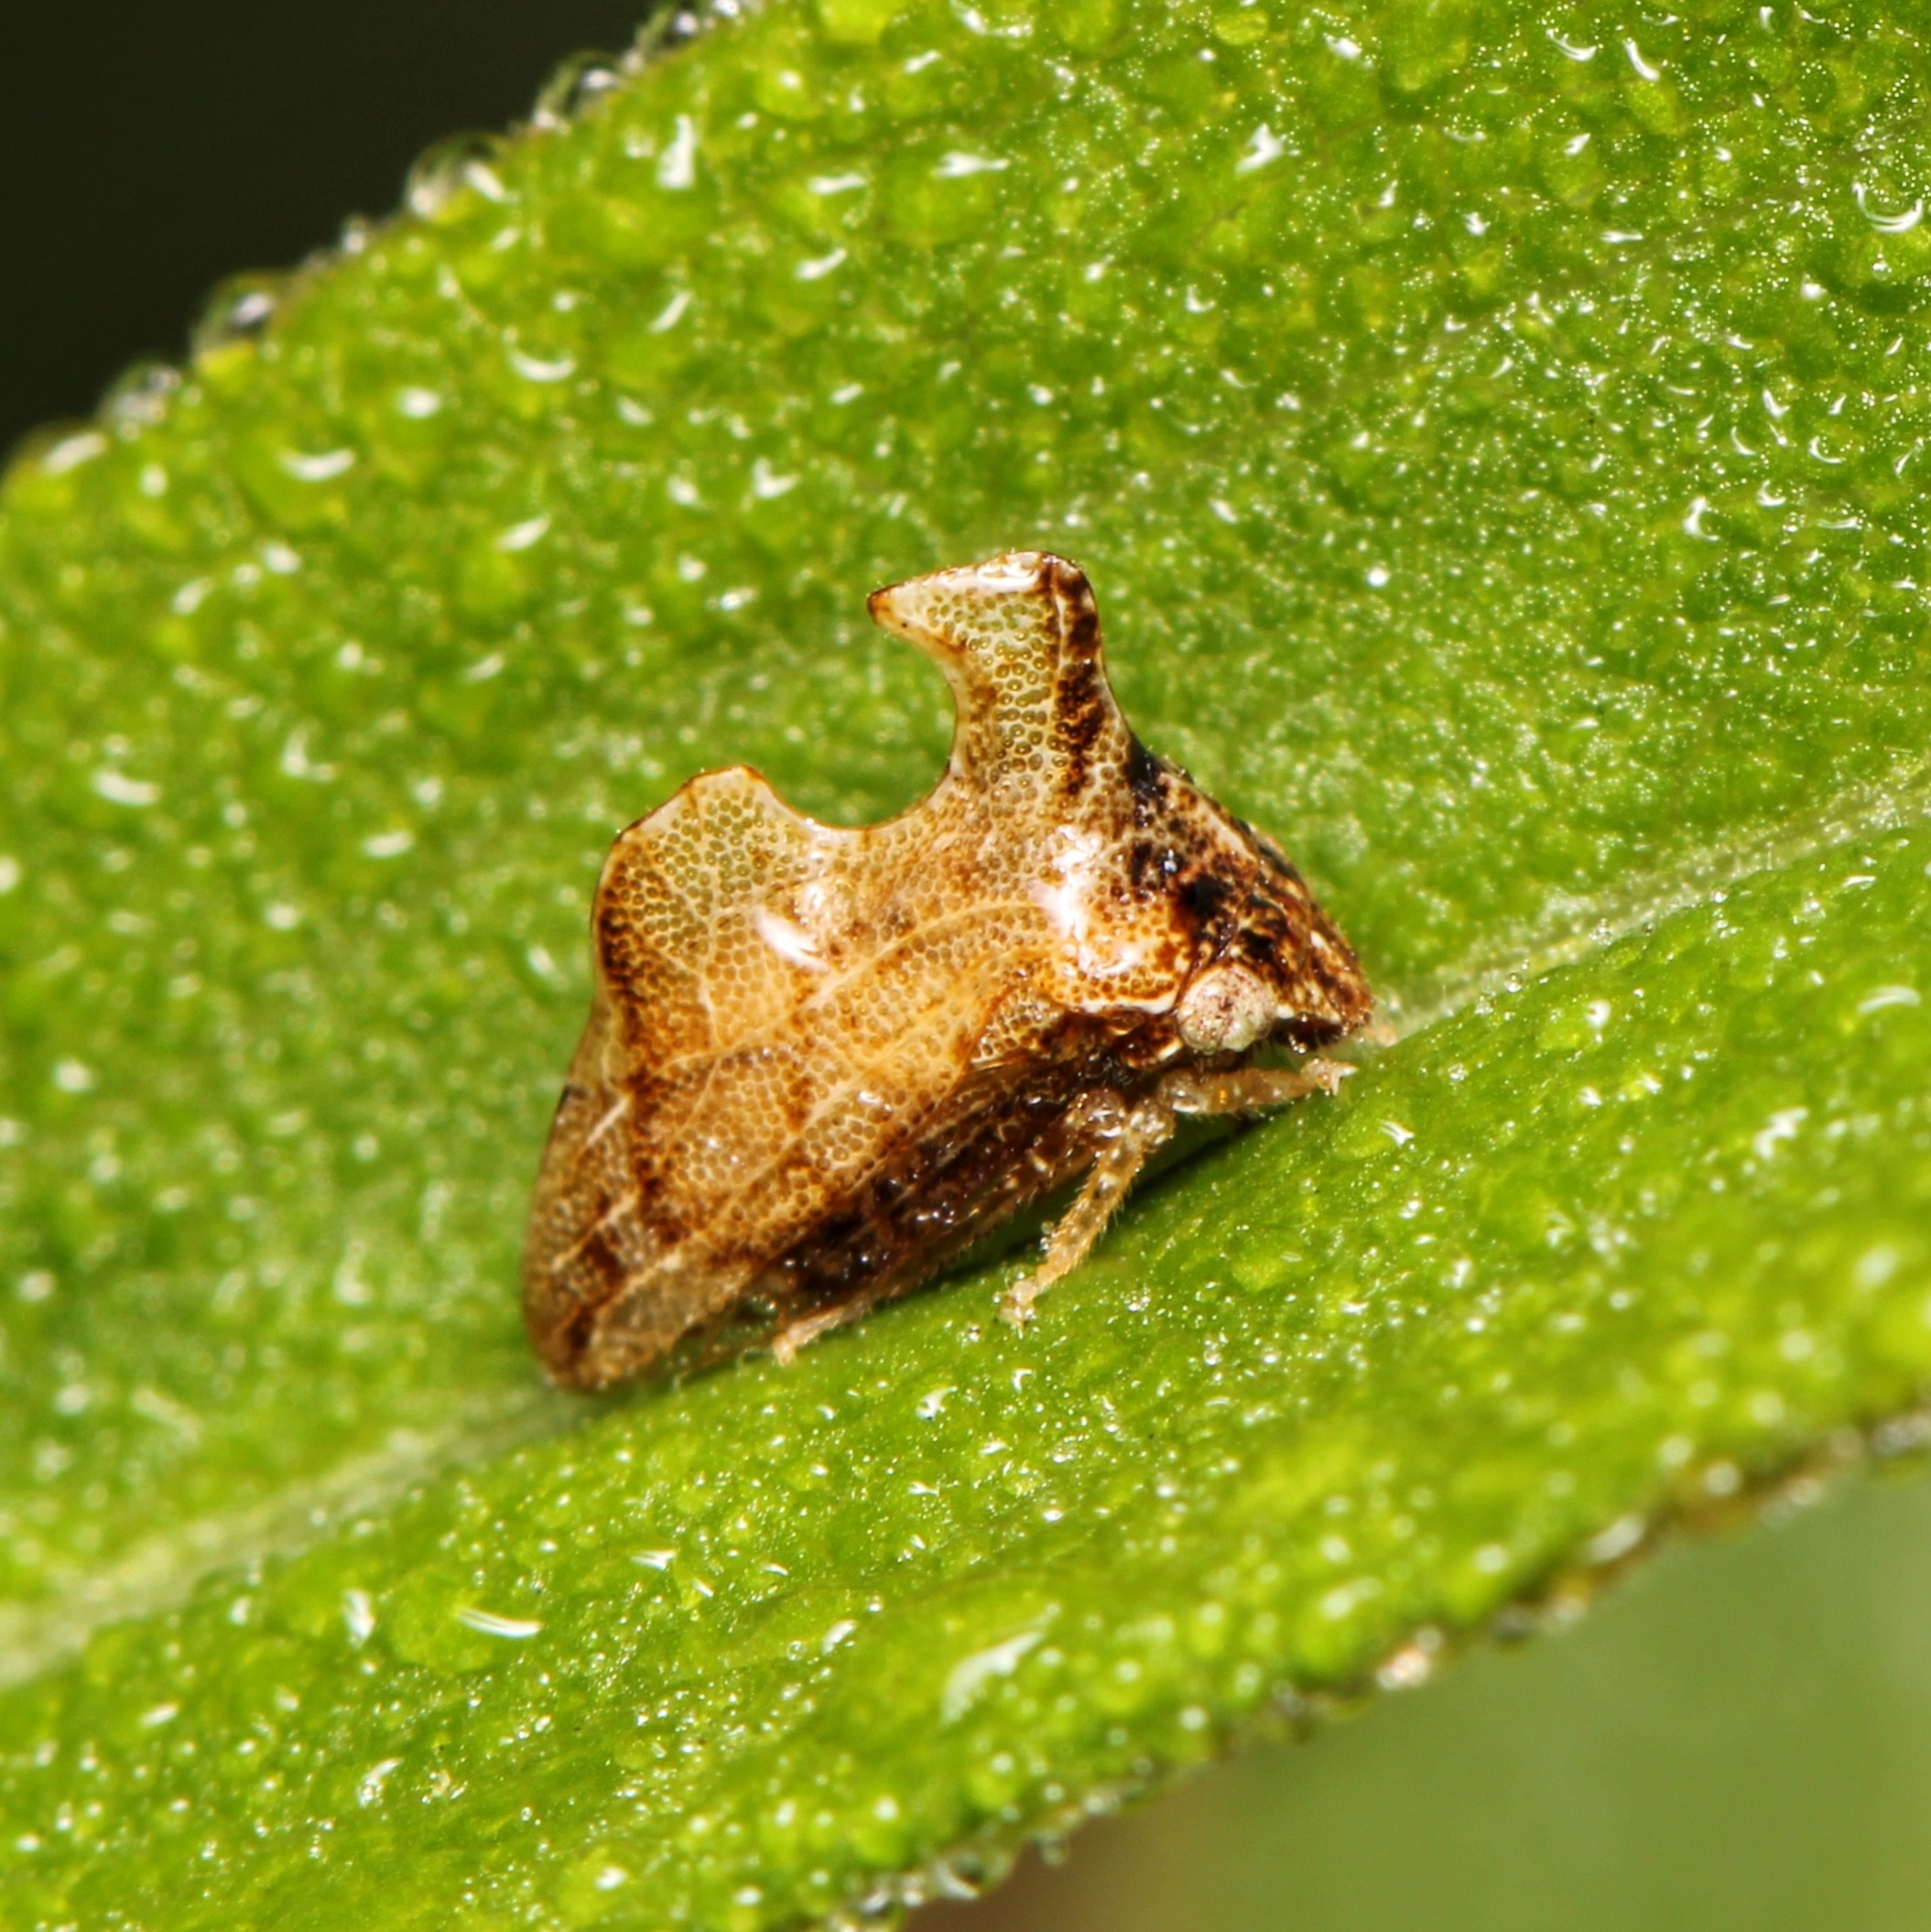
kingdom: Animalia
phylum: Arthropoda
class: Insecta
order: Hemiptera
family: Membracidae
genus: Entylia
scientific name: Entylia carinata
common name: Keeled treehopper
